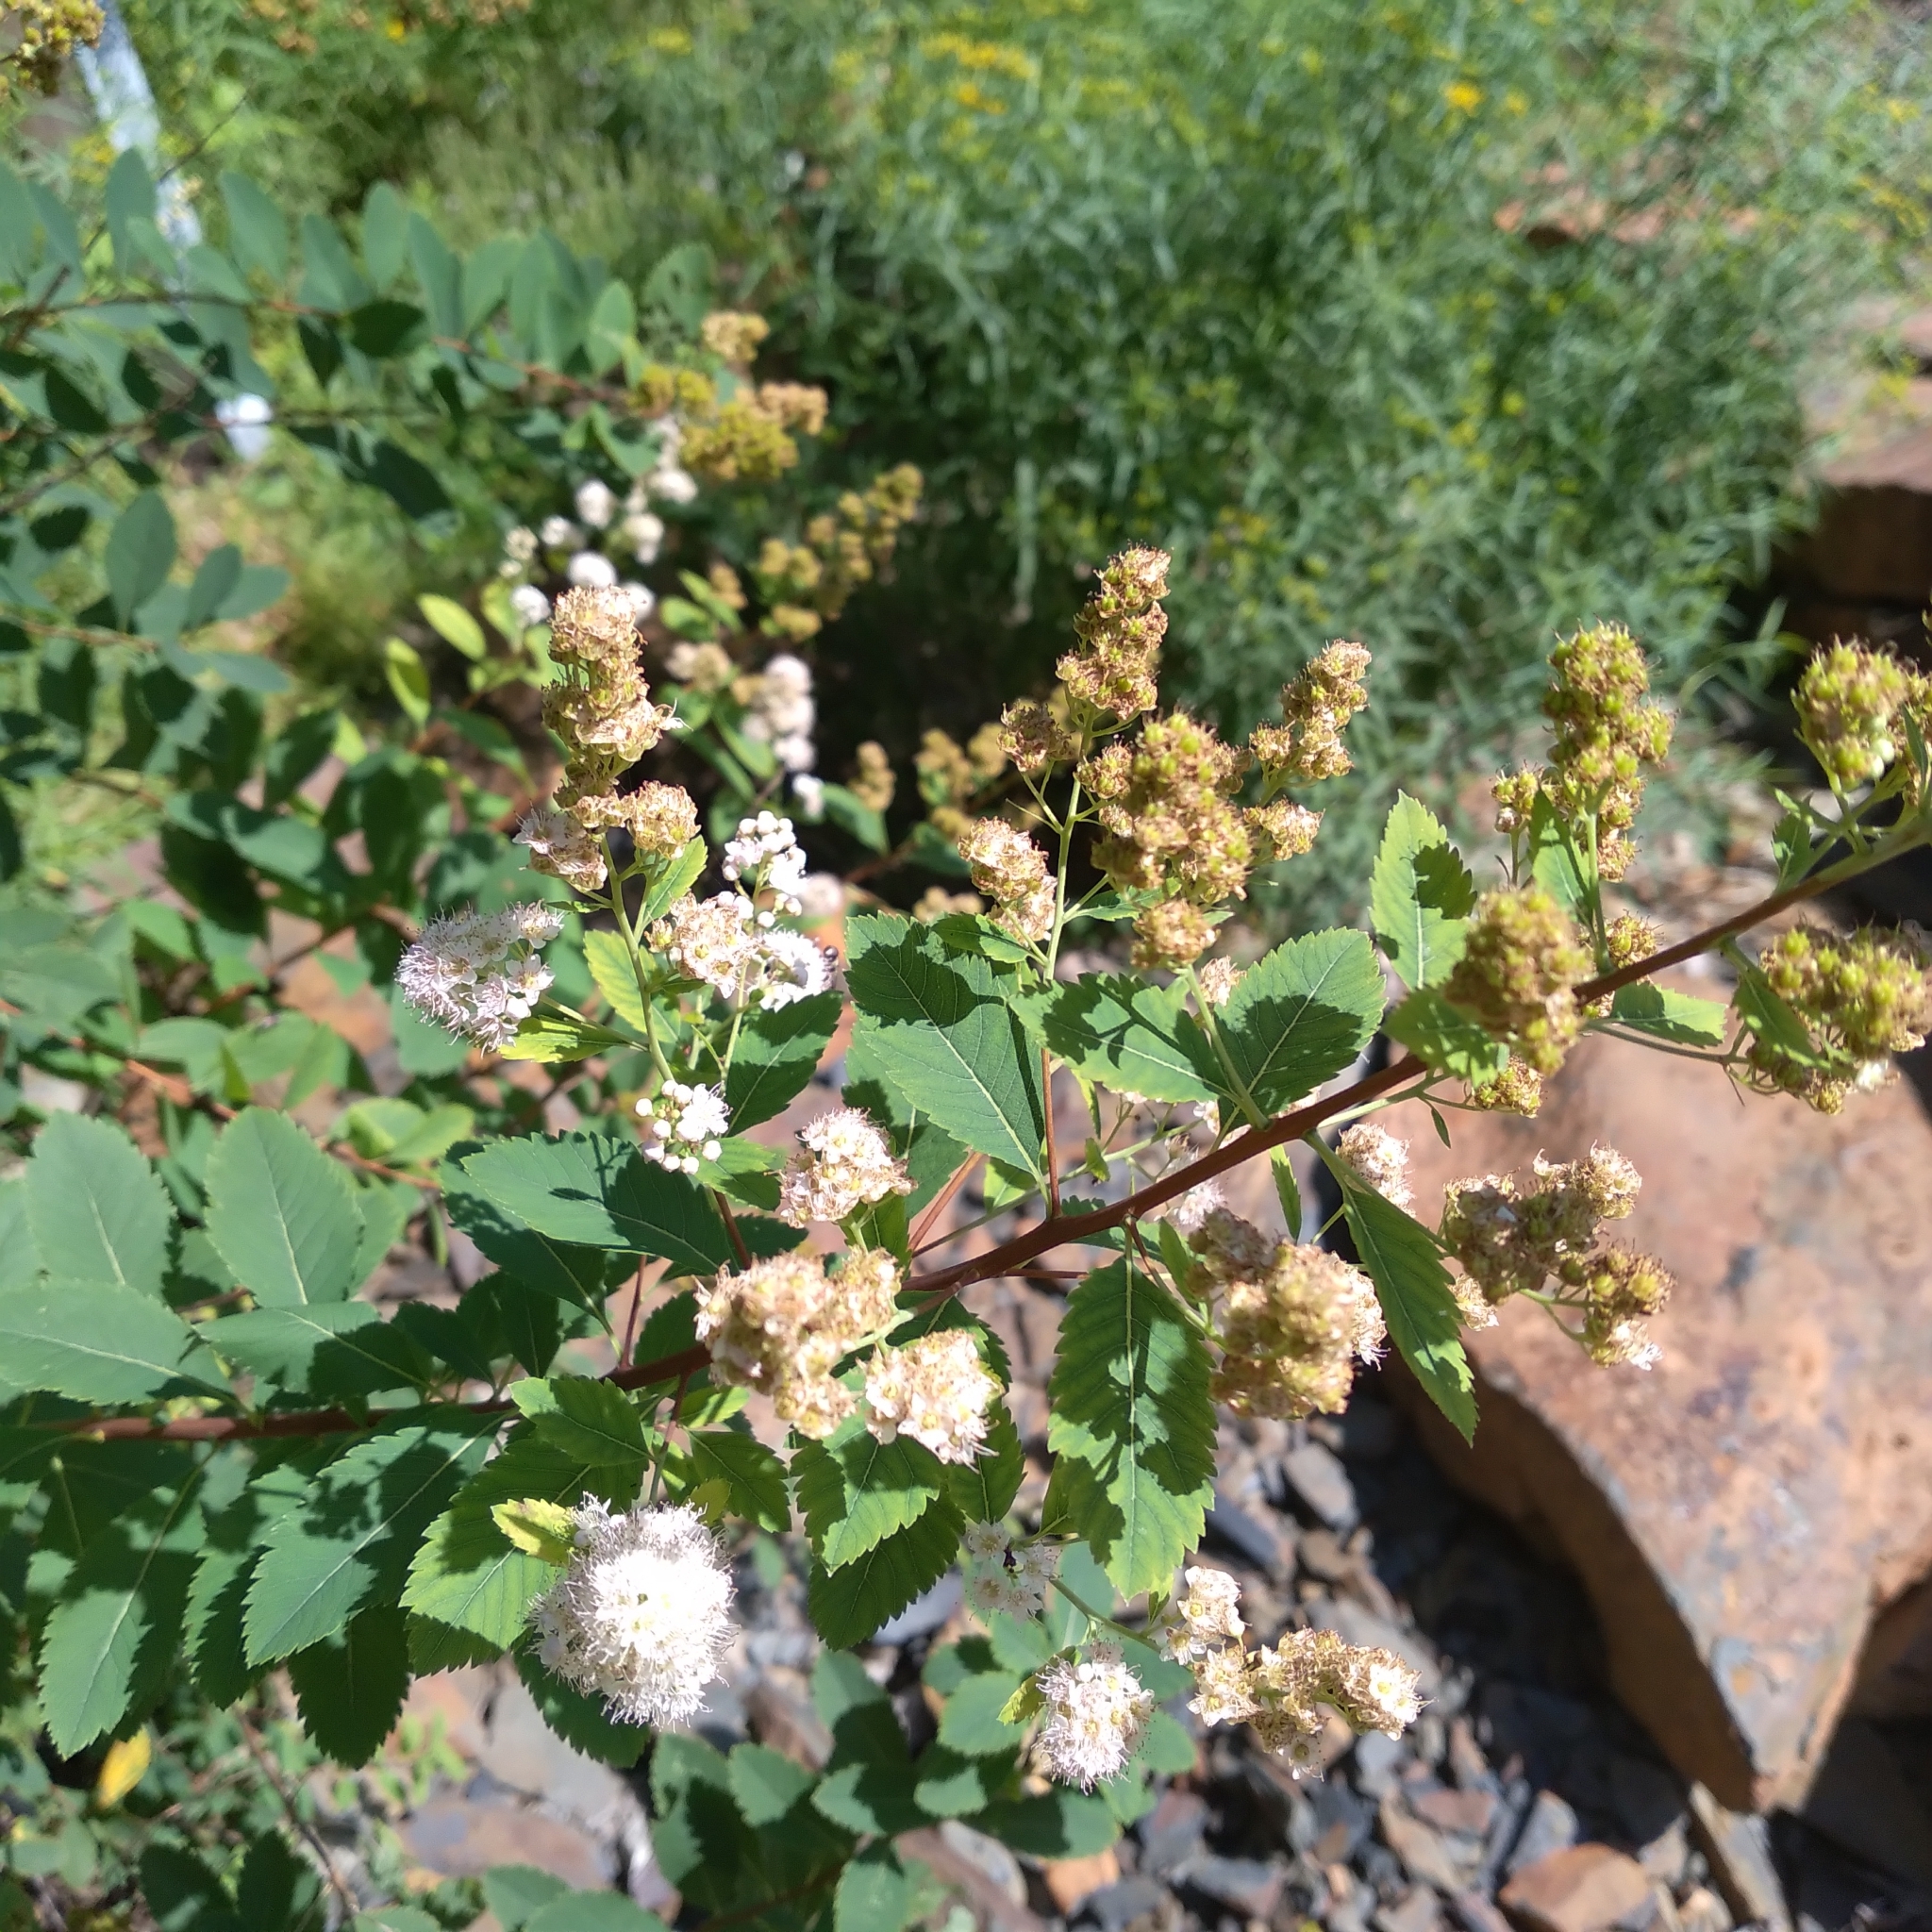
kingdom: Plantae
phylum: Tracheophyta
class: Magnoliopsida
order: Rosales
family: Rosaceae
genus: Spiraea
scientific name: Spiraea alba
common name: Pale bridewort
